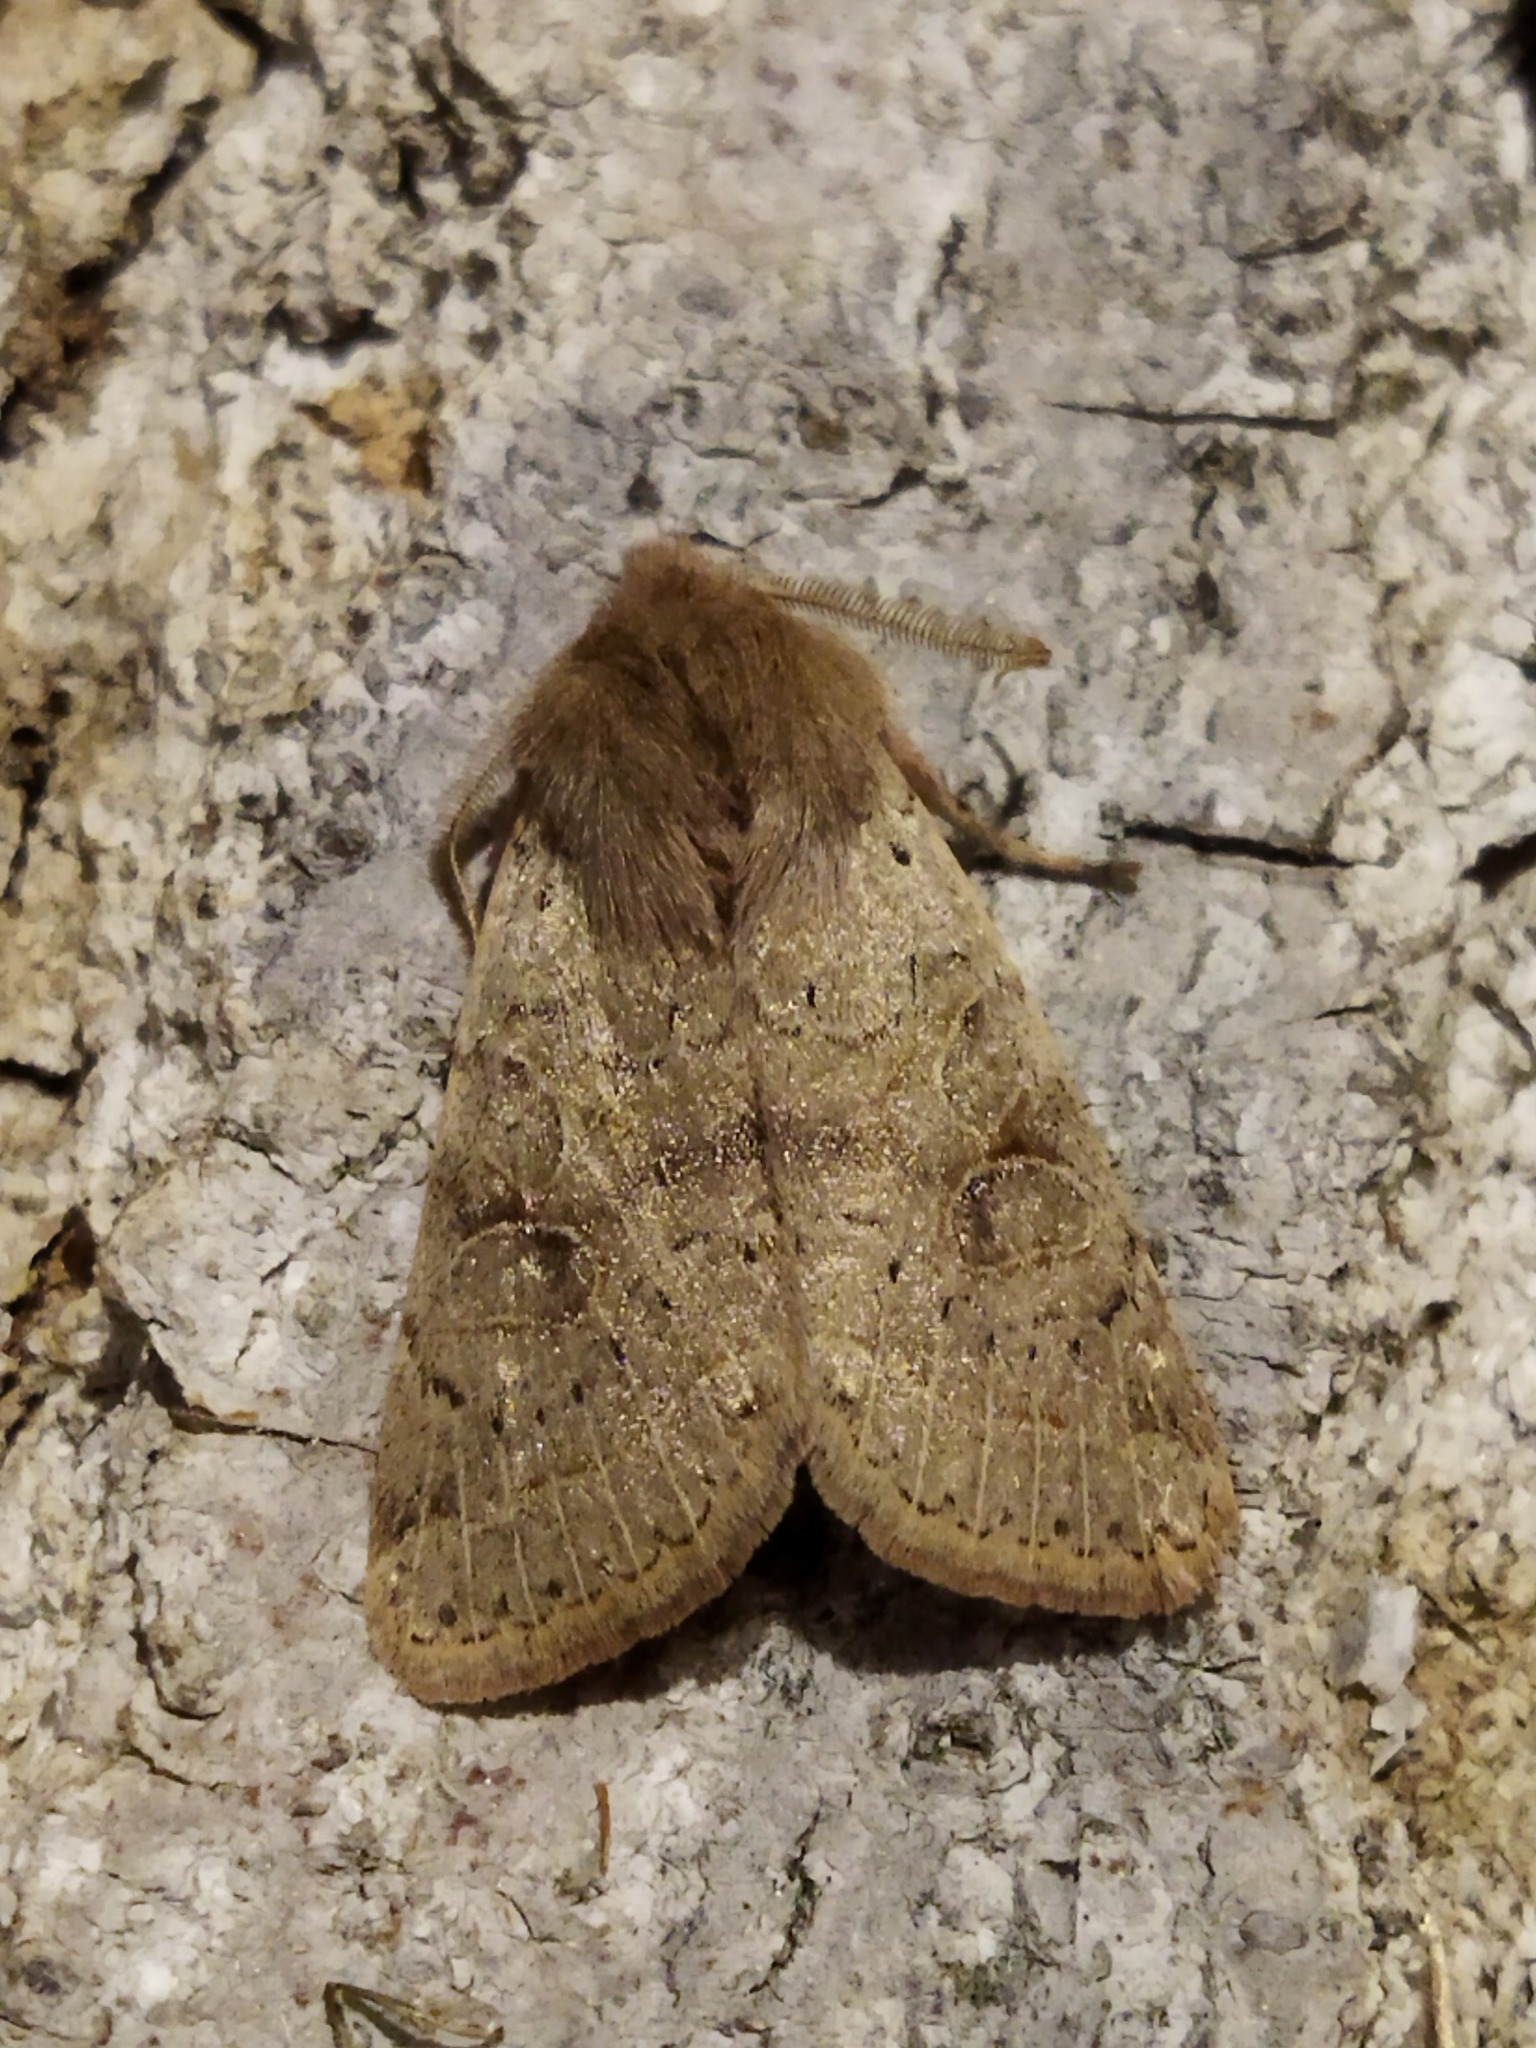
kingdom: Animalia
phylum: Arthropoda
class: Insecta
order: Lepidoptera
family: Noctuidae
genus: Orthosia
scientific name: Orthosia cerasi
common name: Common quaker
